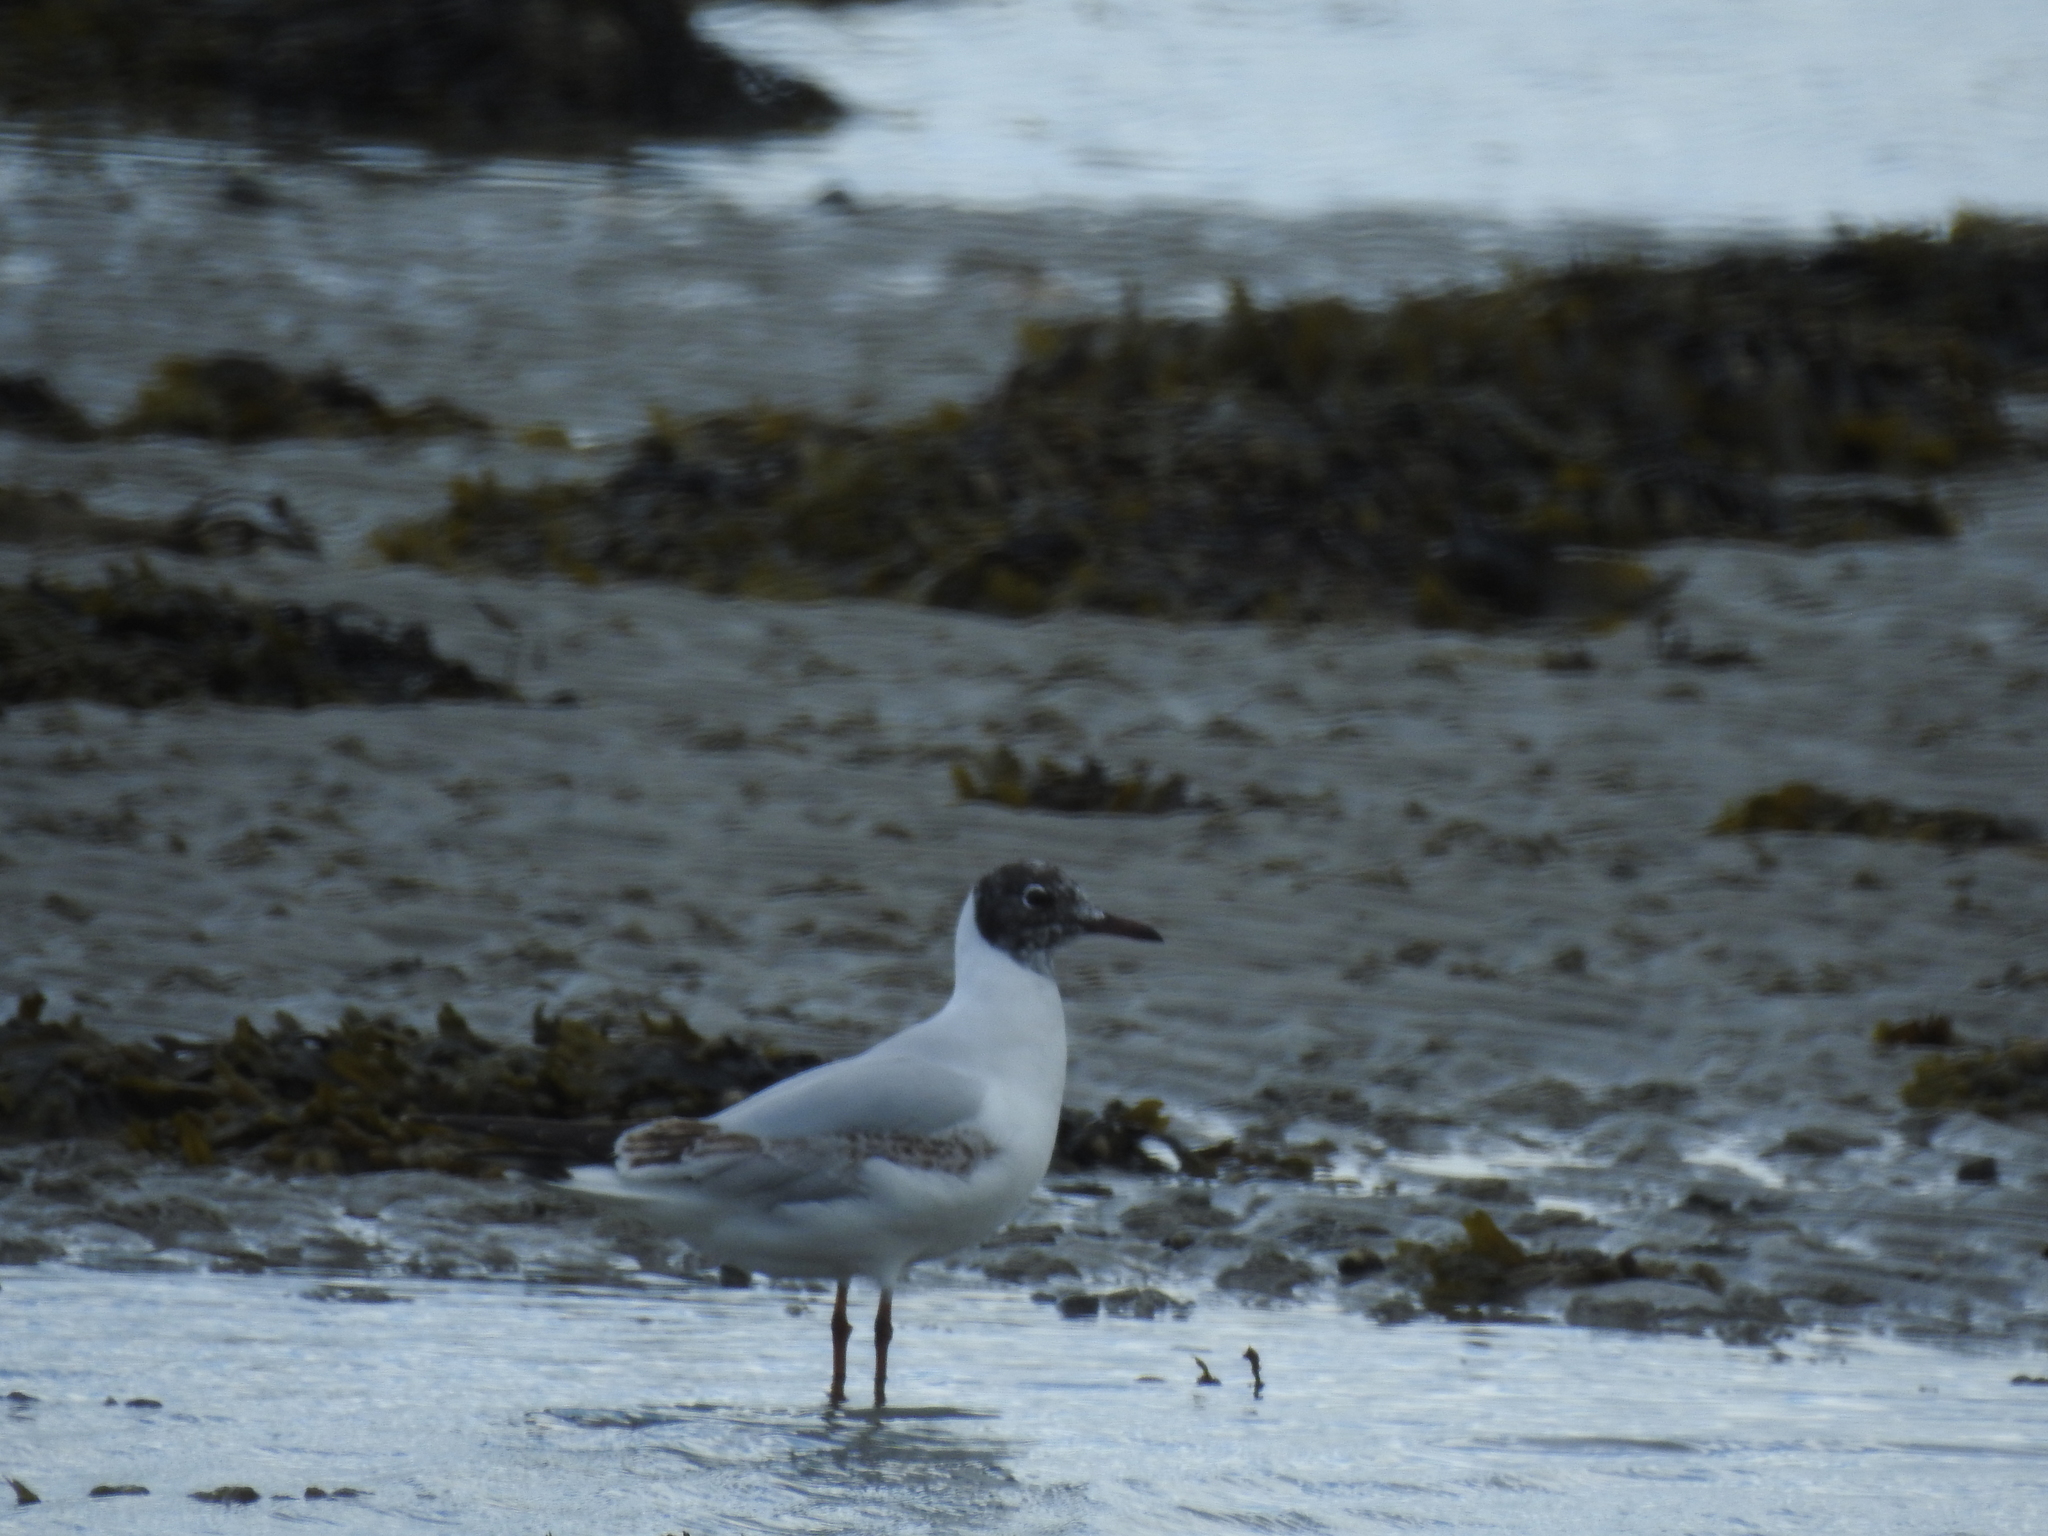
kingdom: Animalia
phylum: Chordata
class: Aves
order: Charadriiformes
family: Laridae
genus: Chroicocephalus
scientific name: Chroicocephalus ridibundus
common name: Black-headed gull
